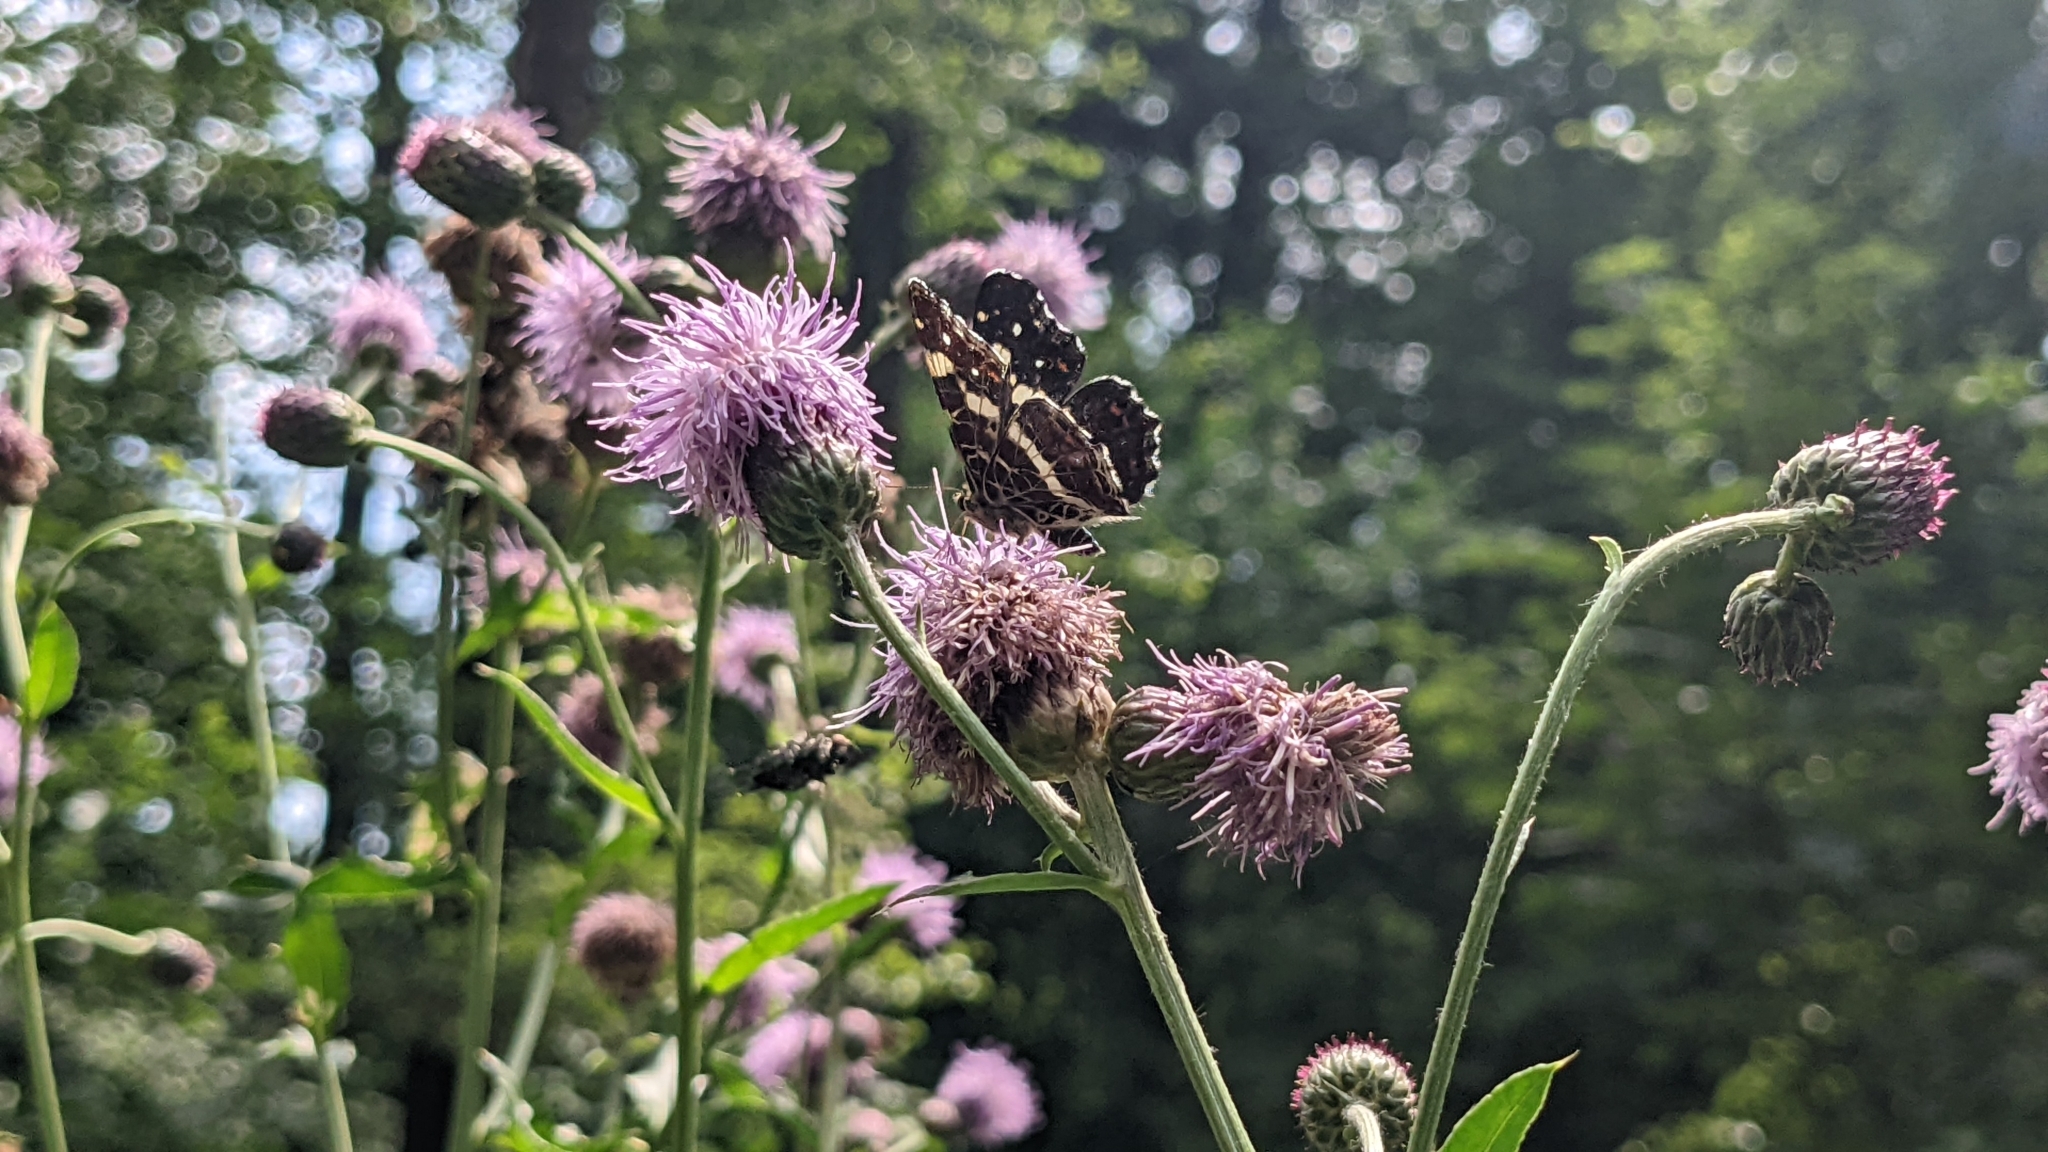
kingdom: Animalia
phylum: Arthropoda
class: Insecta
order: Lepidoptera
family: Nymphalidae
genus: Araschnia
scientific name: Araschnia levana
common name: Map butterfly
